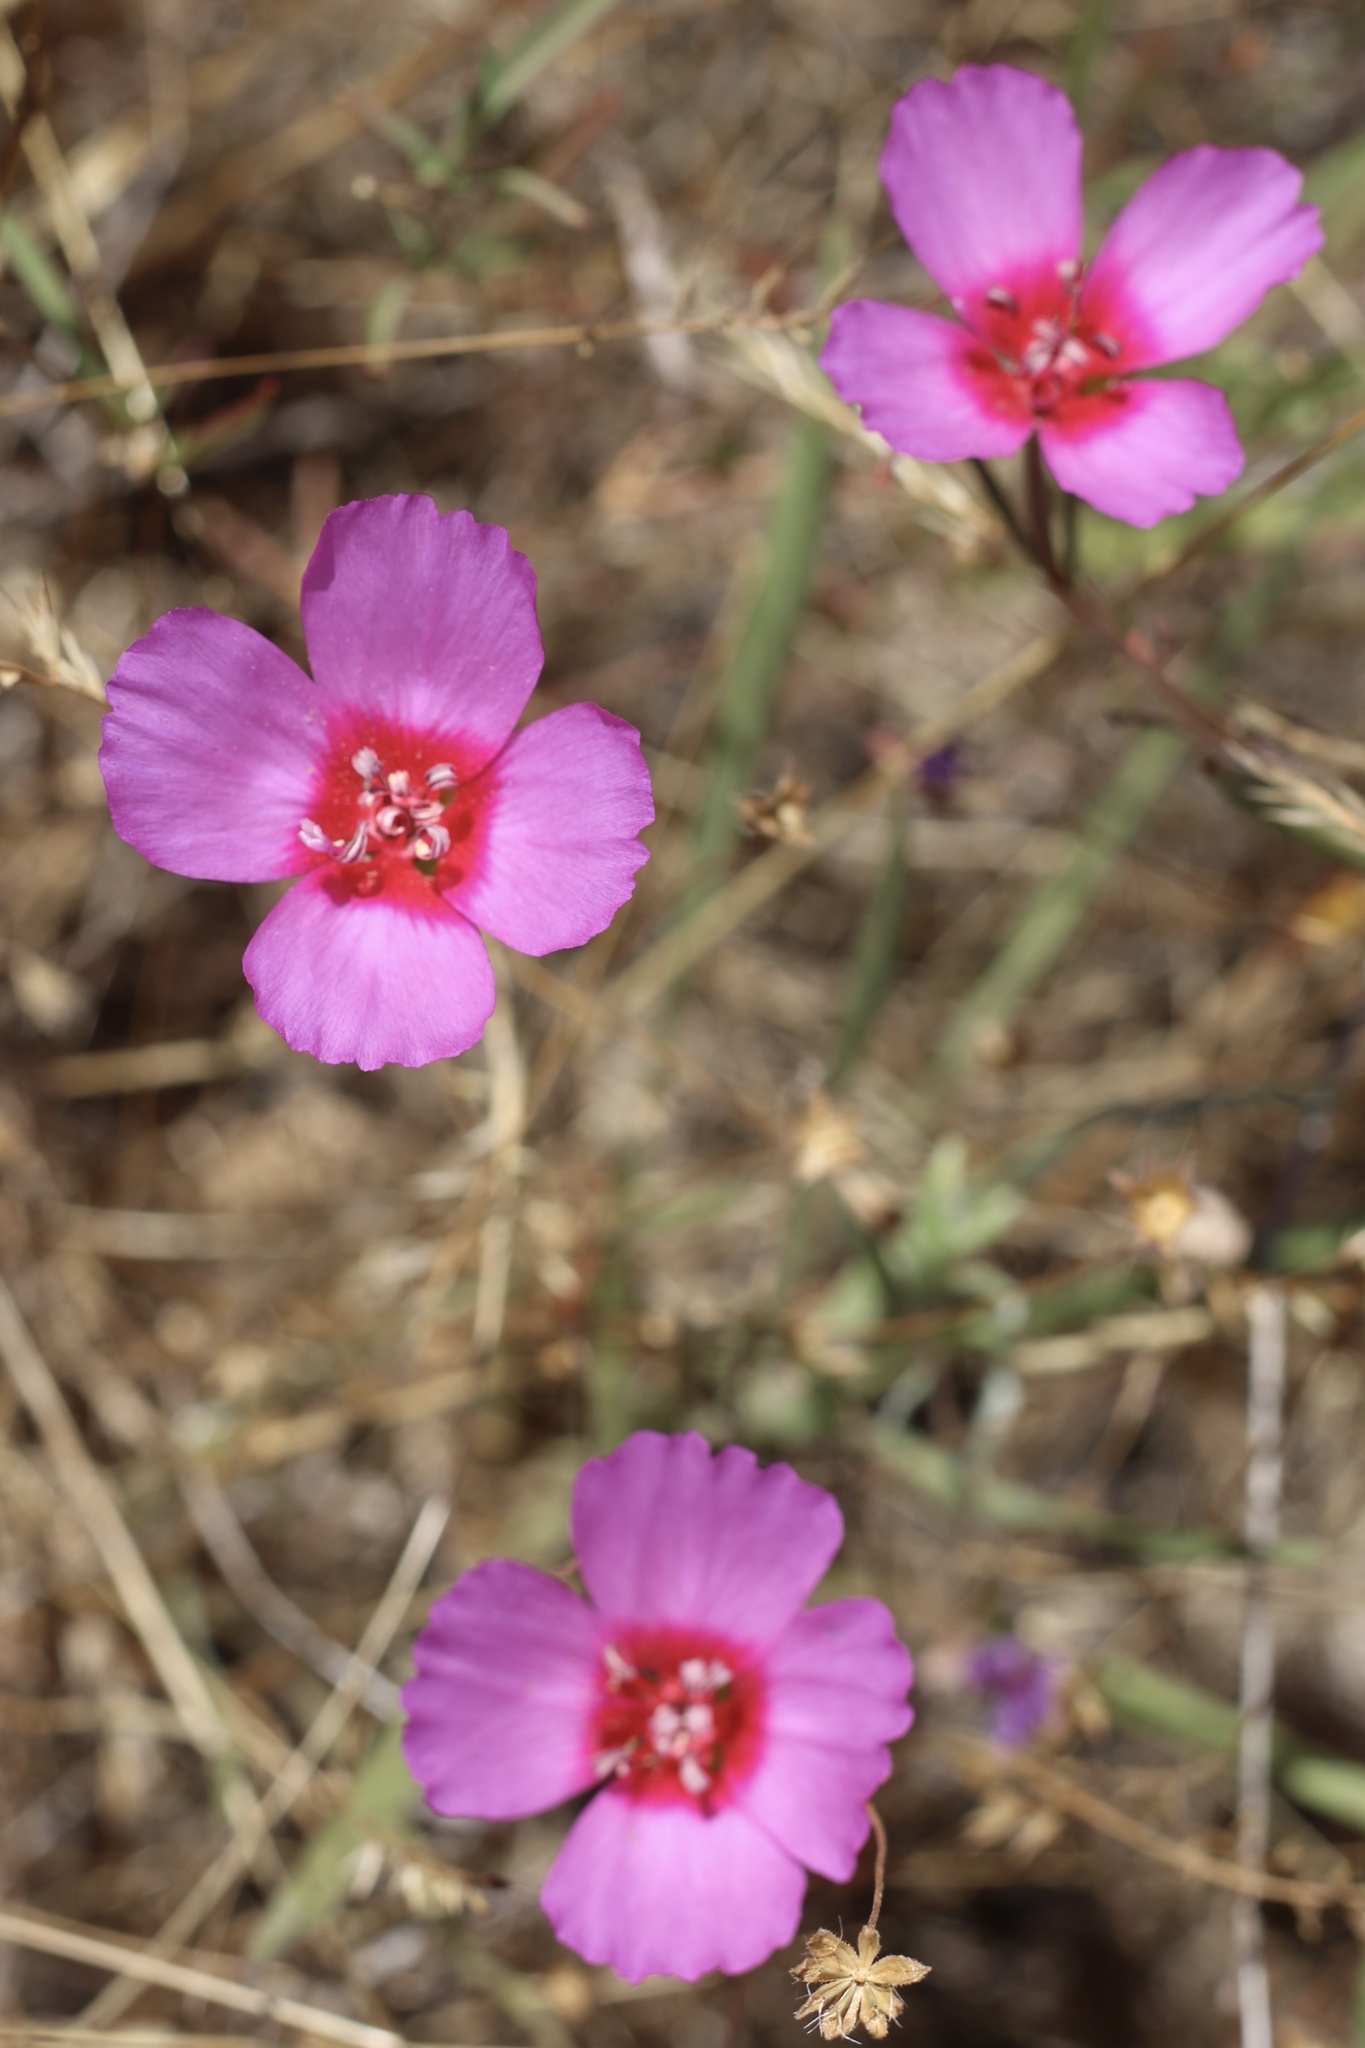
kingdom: Plantae
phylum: Tracheophyta
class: Magnoliopsida
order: Myrtales
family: Onagraceae
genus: Clarkia
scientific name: Clarkia rubicunda
